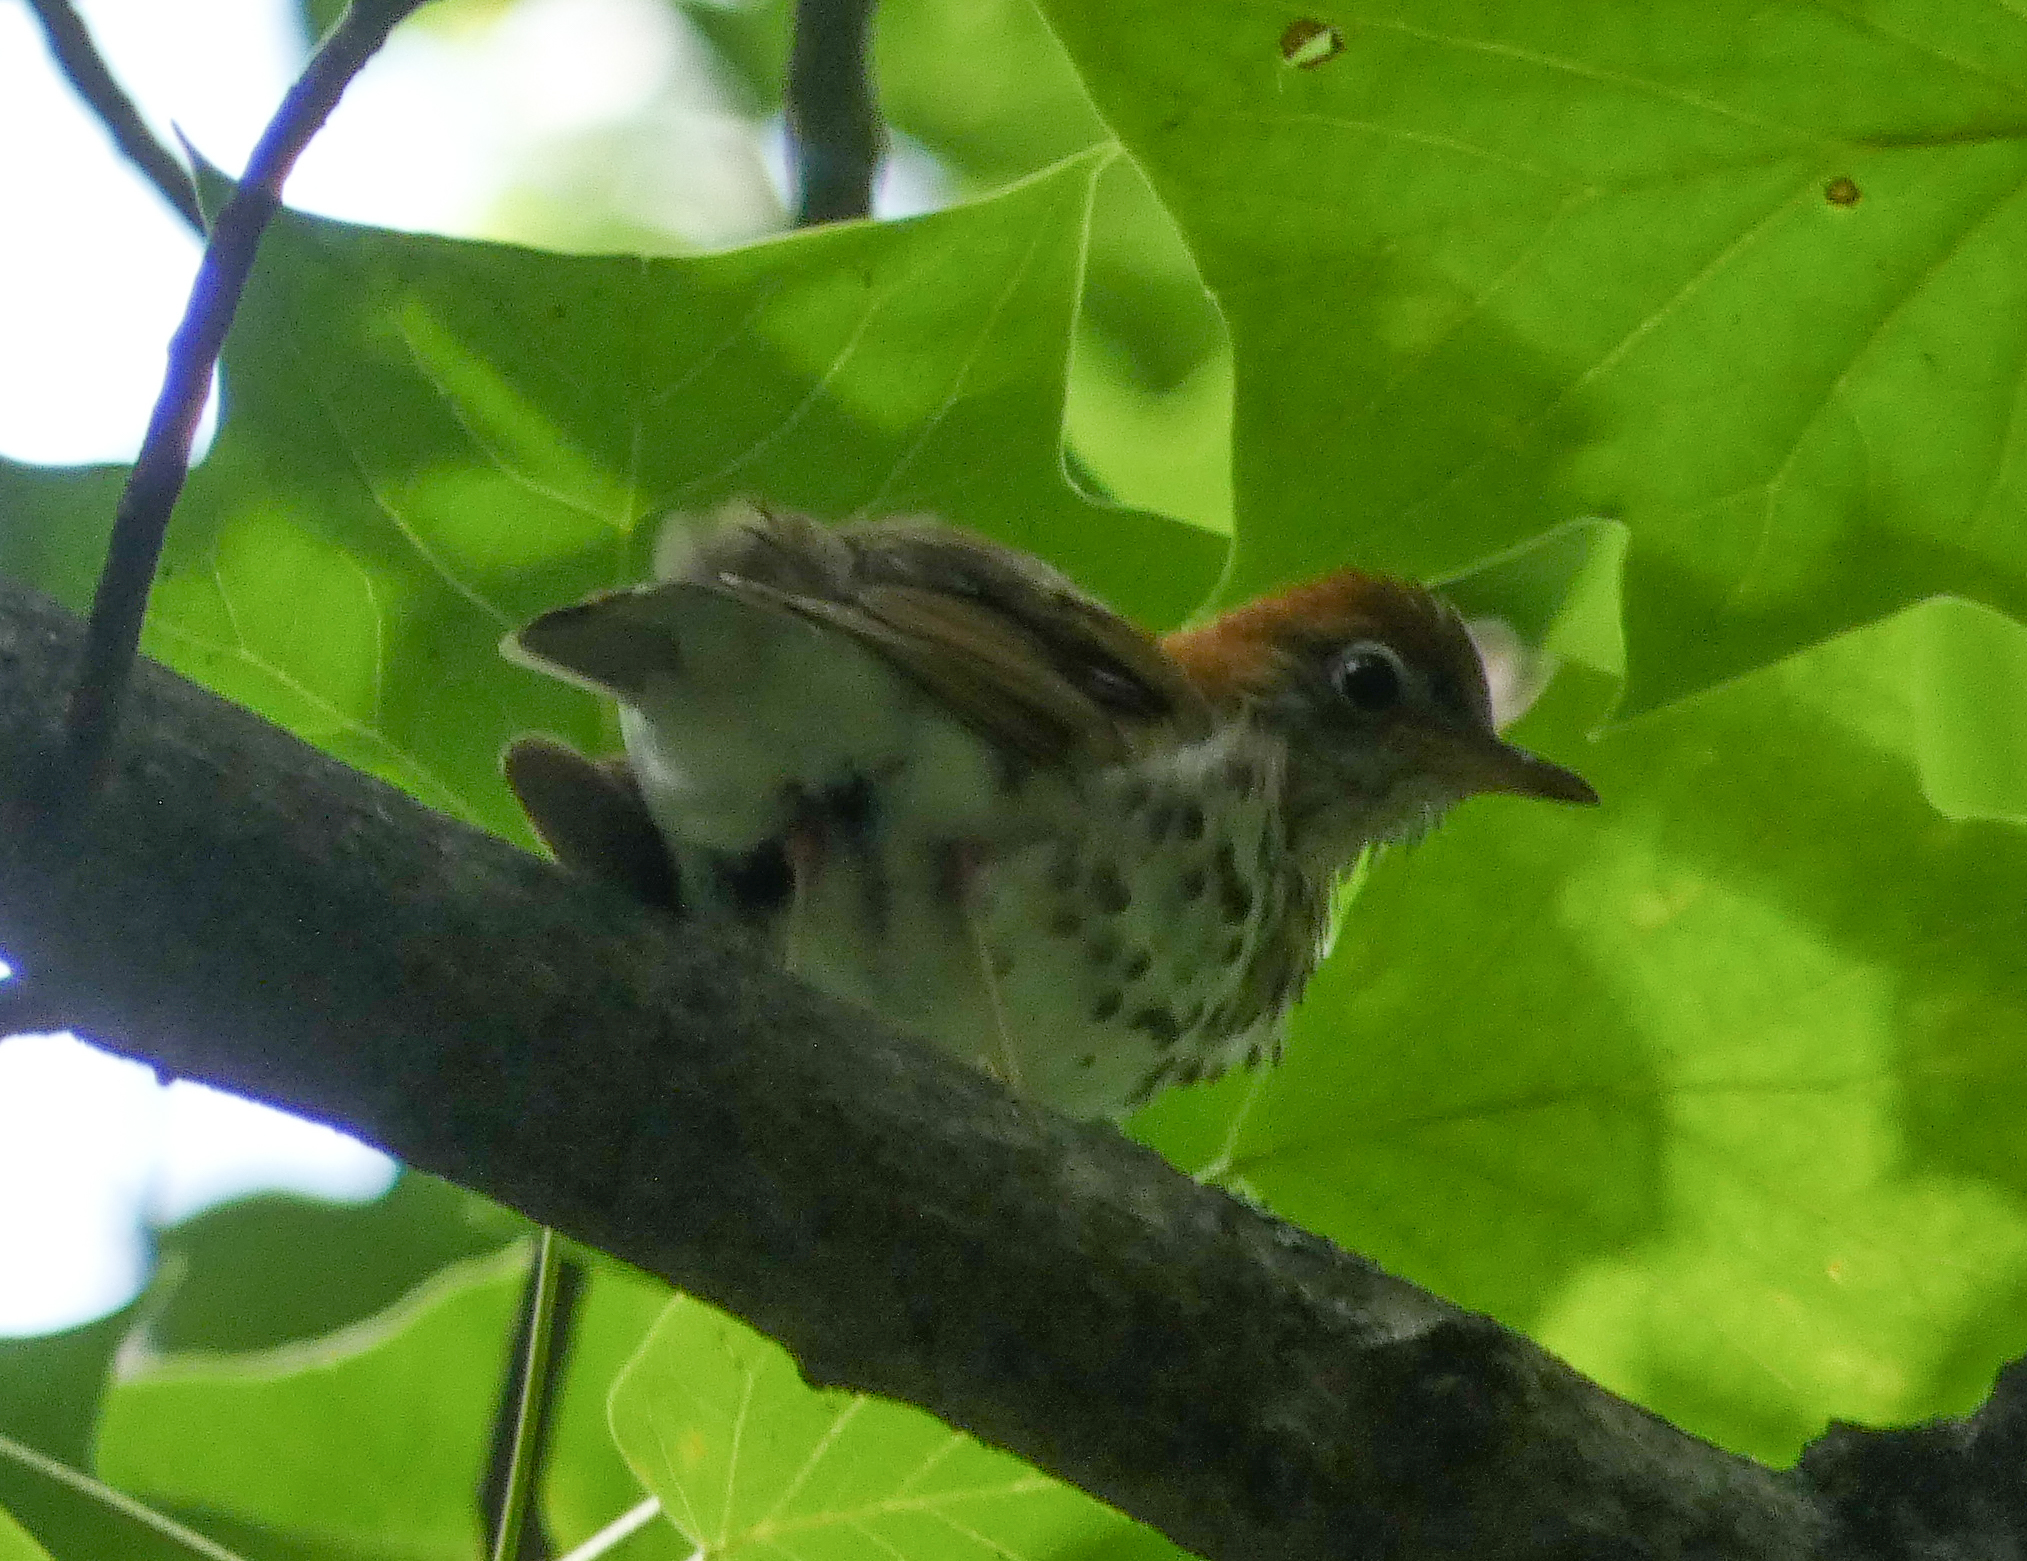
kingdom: Animalia
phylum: Chordata
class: Aves
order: Passeriformes
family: Turdidae
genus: Hylocichla
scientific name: Hylocichla mustelina
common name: Wood thrush
